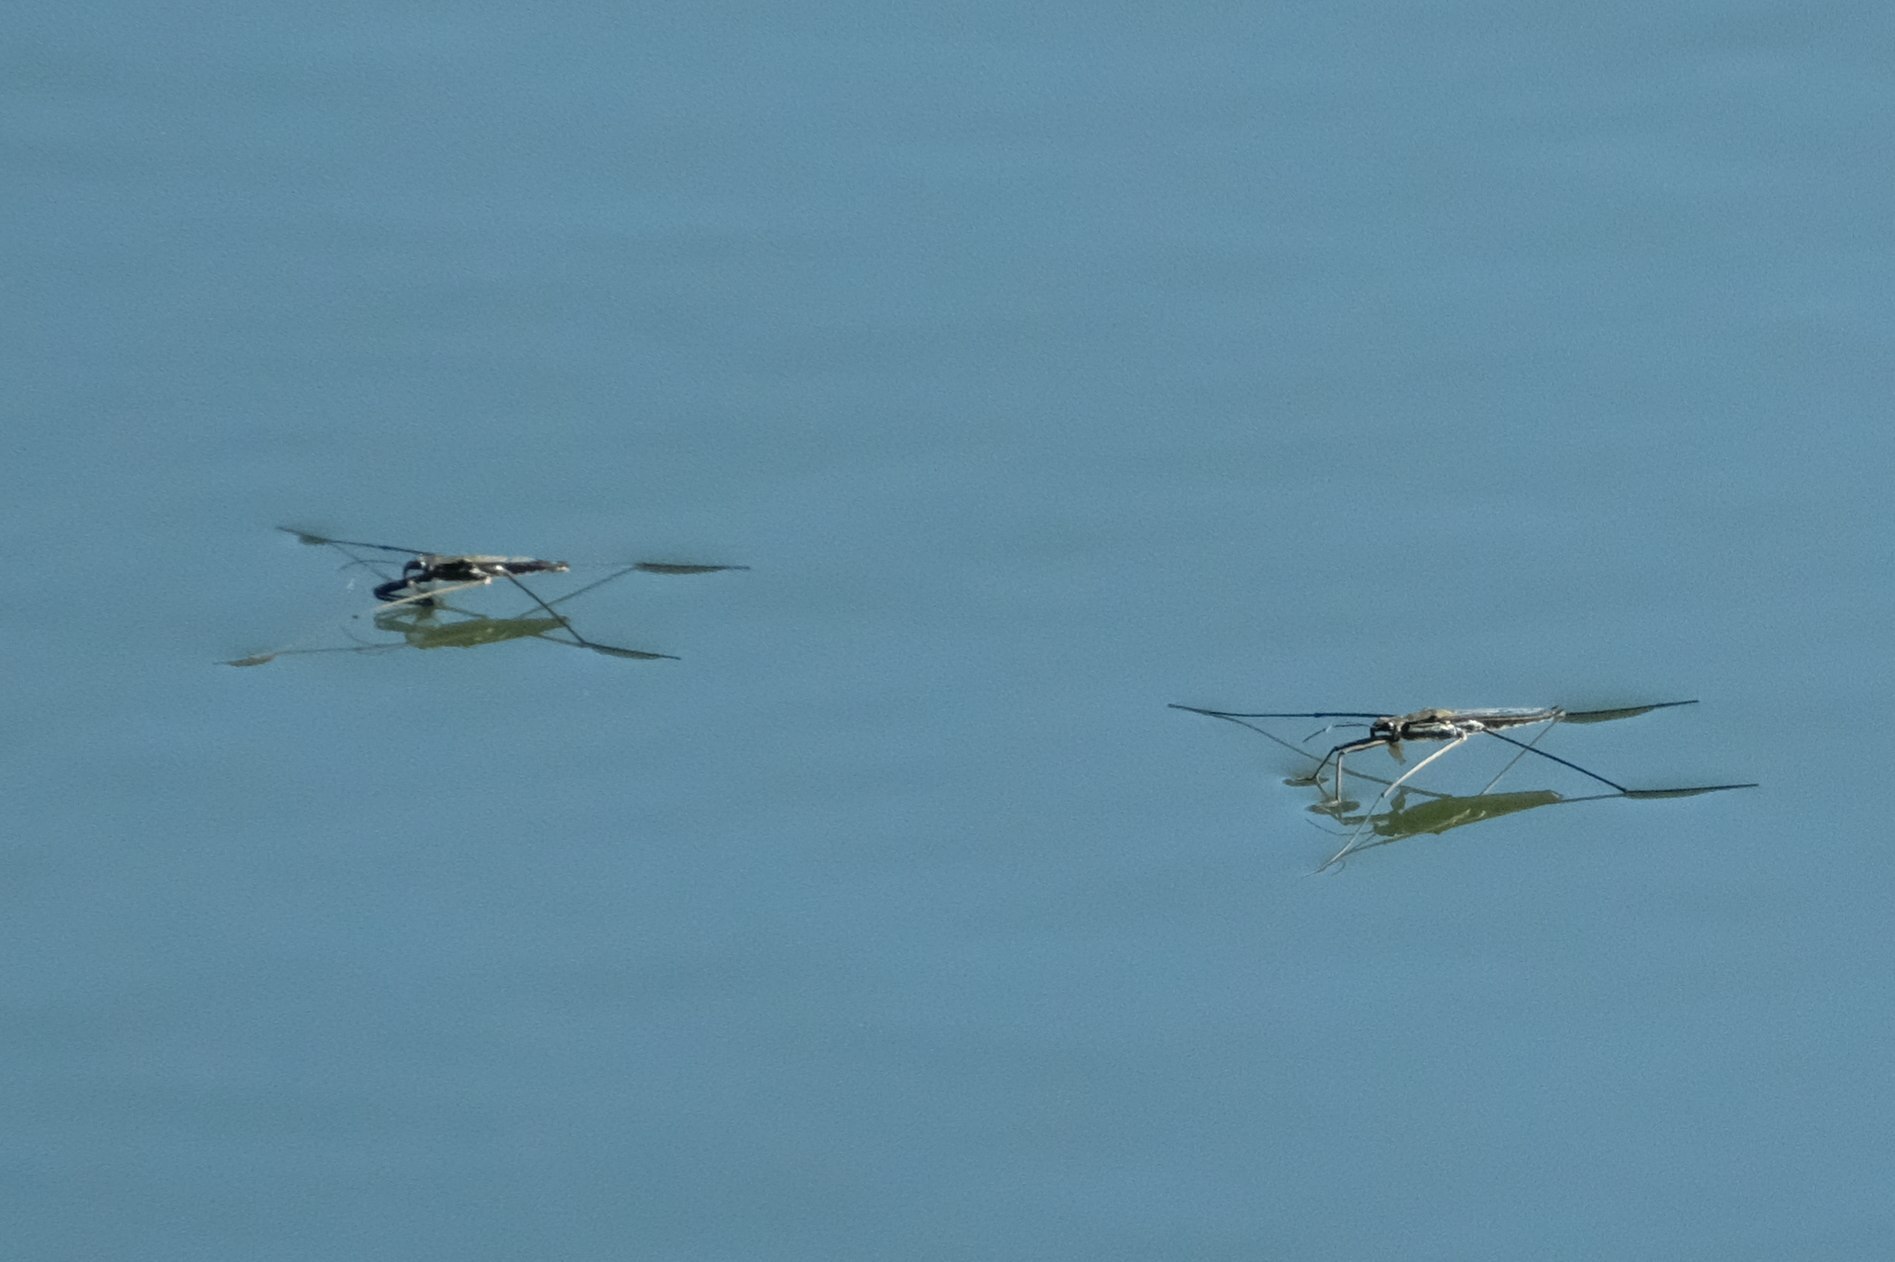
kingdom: Animalia
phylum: Arthropoda
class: Insecta
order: Hemiptera
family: Gerridae
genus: Aquarius
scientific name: Aquarius paludum
